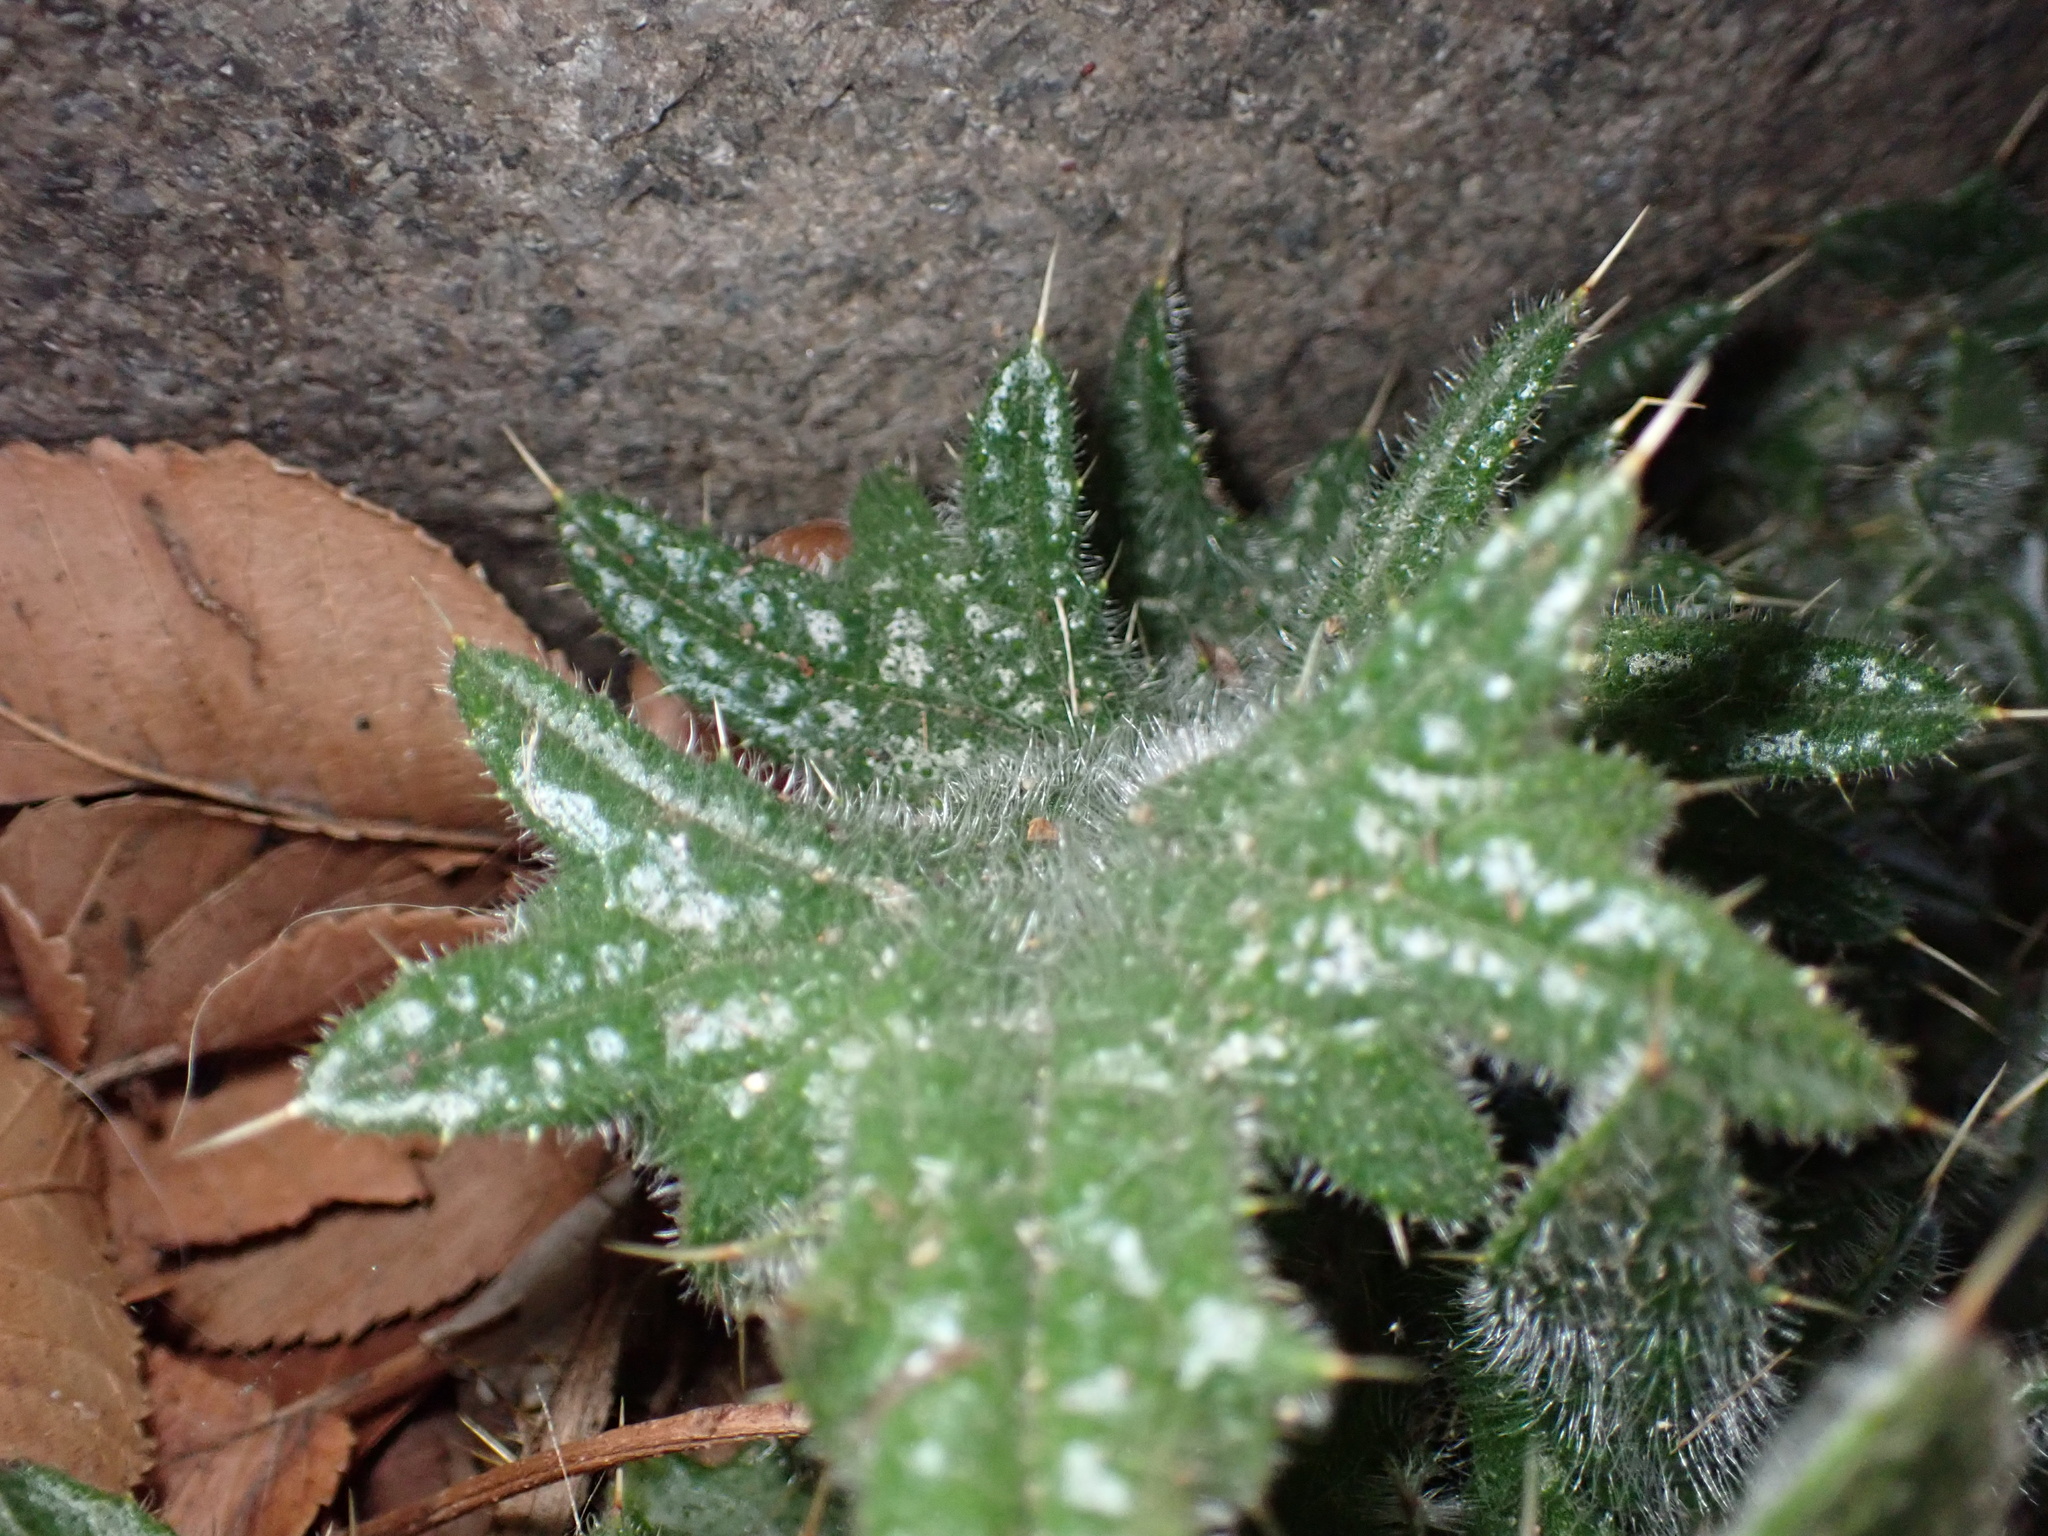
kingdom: Plantae
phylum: Tracheophyta
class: Magnoliopsida
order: Asterales
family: Asteraceae
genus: Cirsium
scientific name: Cirsium vulgare
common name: Bull thistle
